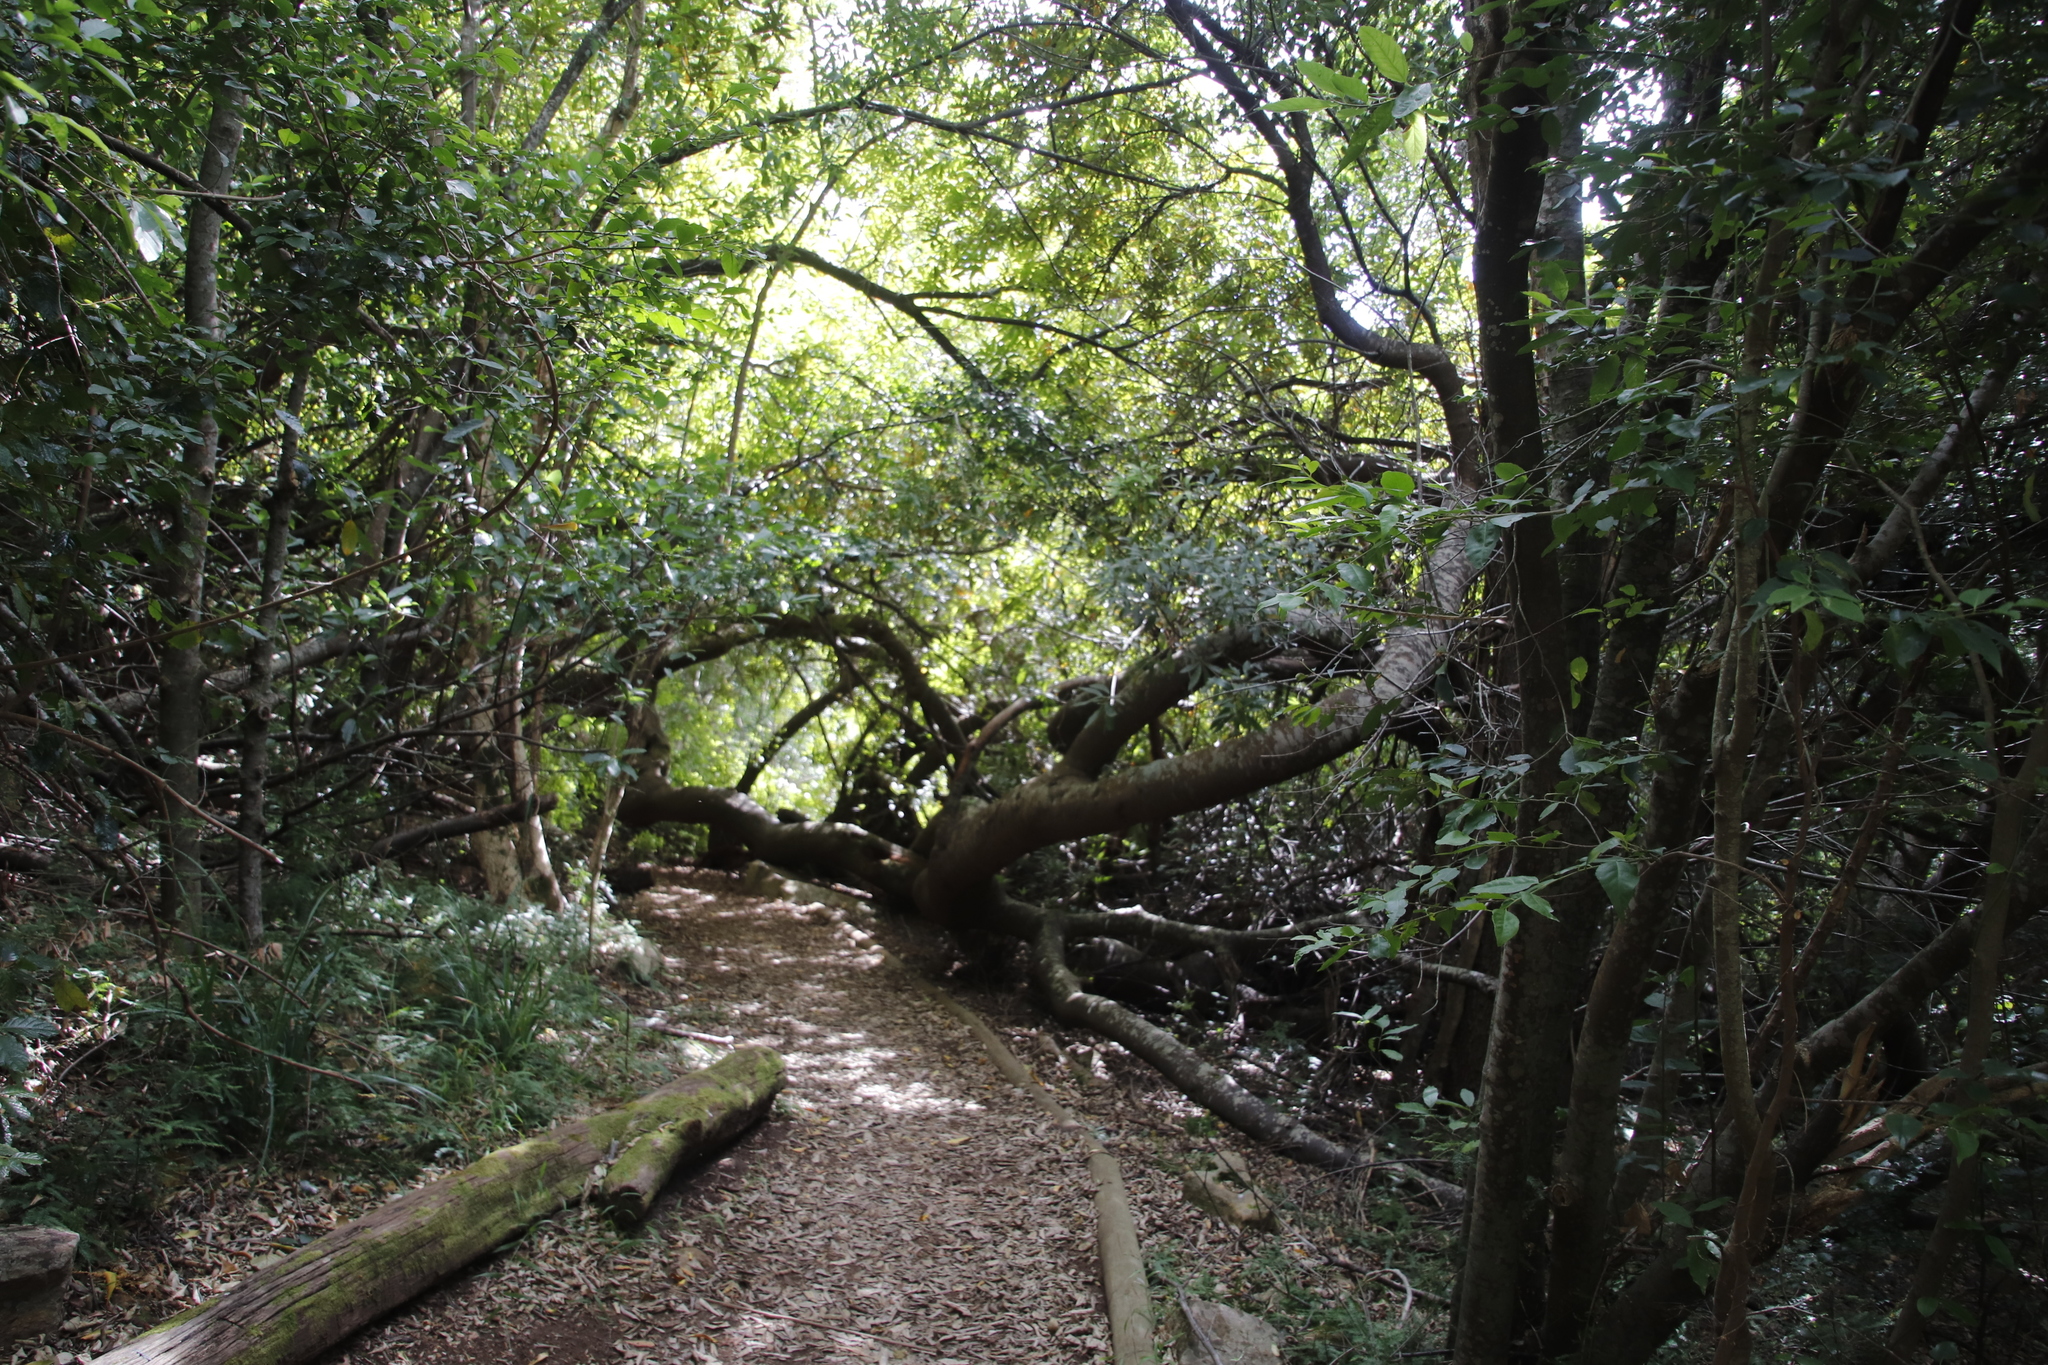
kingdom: Plantae
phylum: Tracheophyta
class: Magnoliopsida
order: Proteales
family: Proteaceae
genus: Brabejum
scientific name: Brabejum stellatifolium
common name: Wild almond
